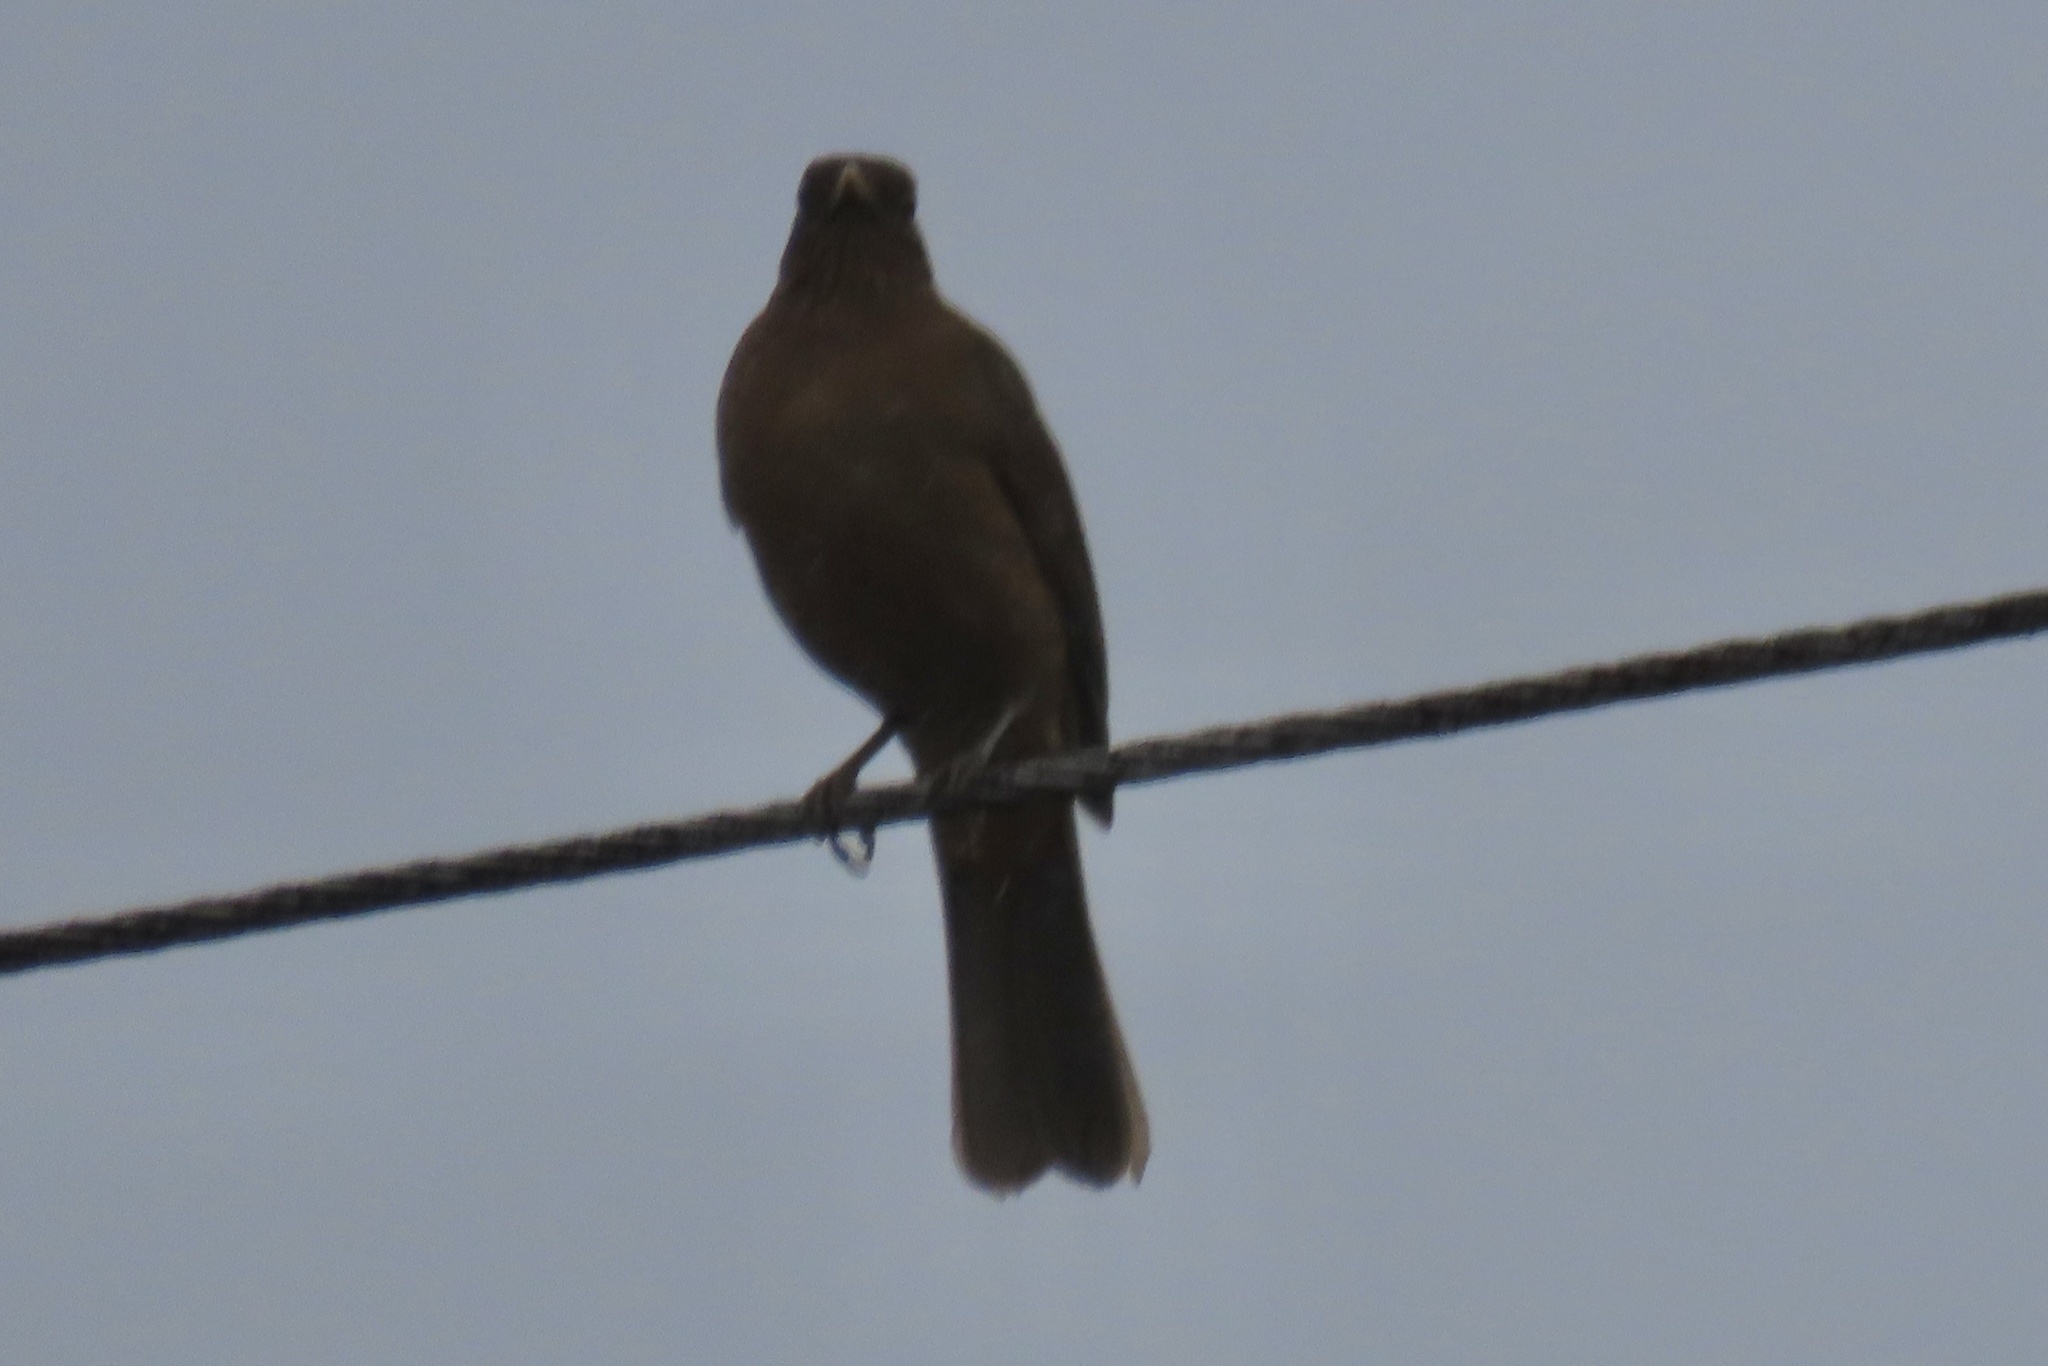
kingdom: Animalia
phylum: Chordata
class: Aves
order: Passeriformes
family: Turdidae
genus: Turdus
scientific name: Turdus grayi
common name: Clay-colored thrush
